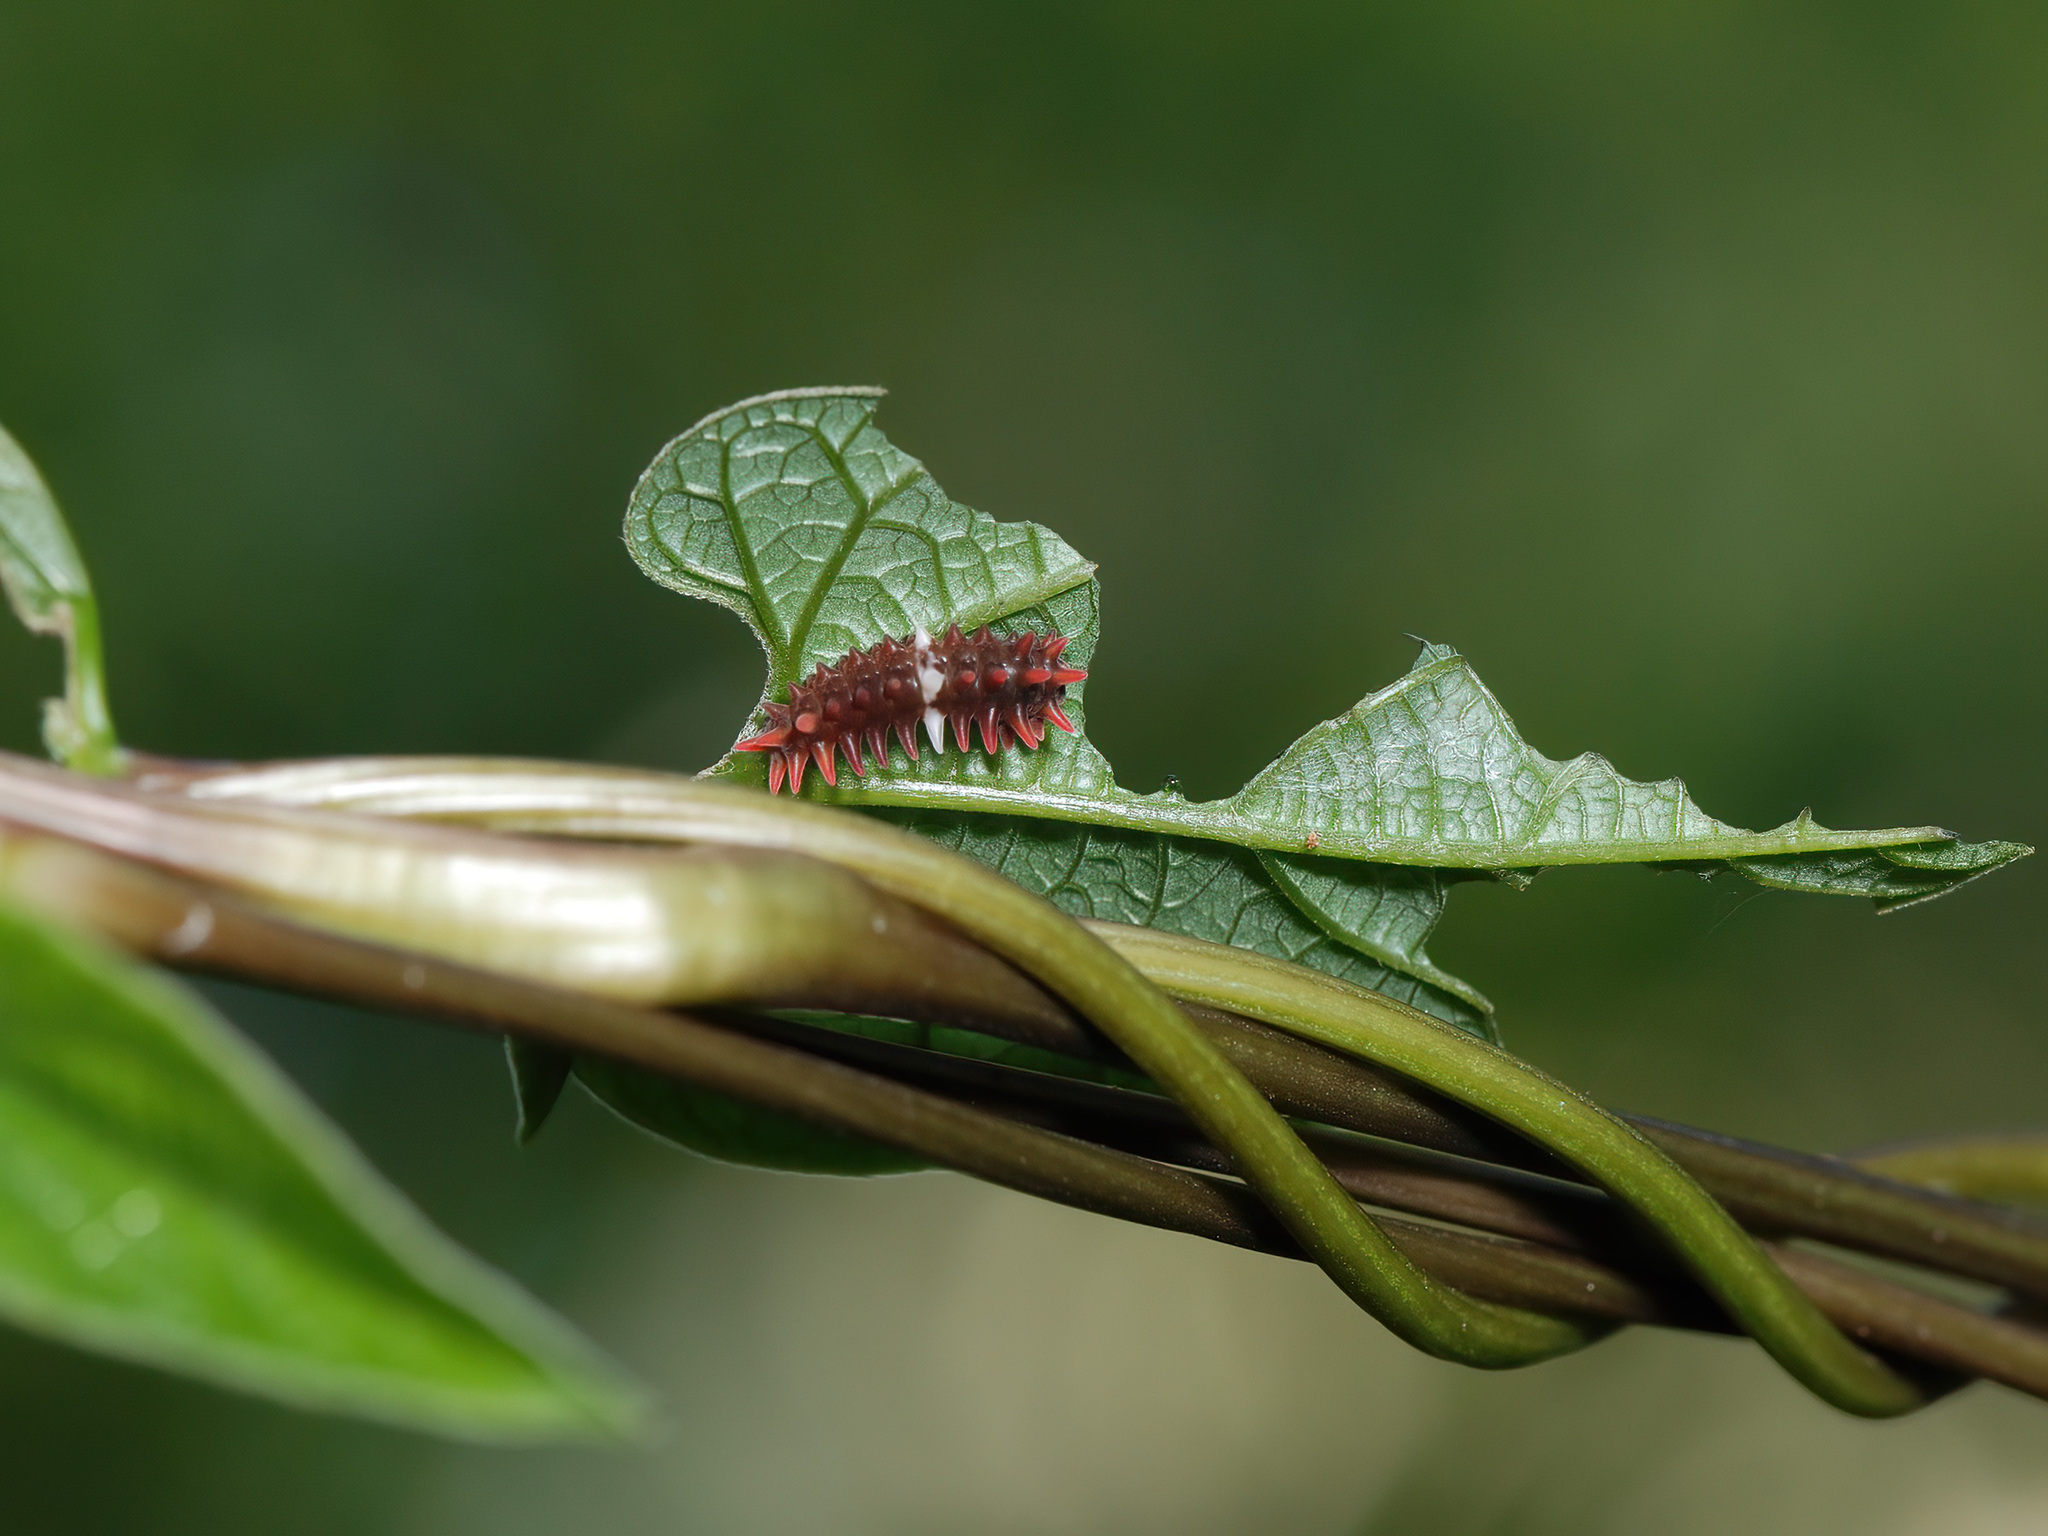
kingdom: Animalia
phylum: Arthropoda
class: Insecta
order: Lepidoptera
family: Papilionidae
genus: Pachliopta
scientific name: Pachliopta aristolochiae
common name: Common rose
